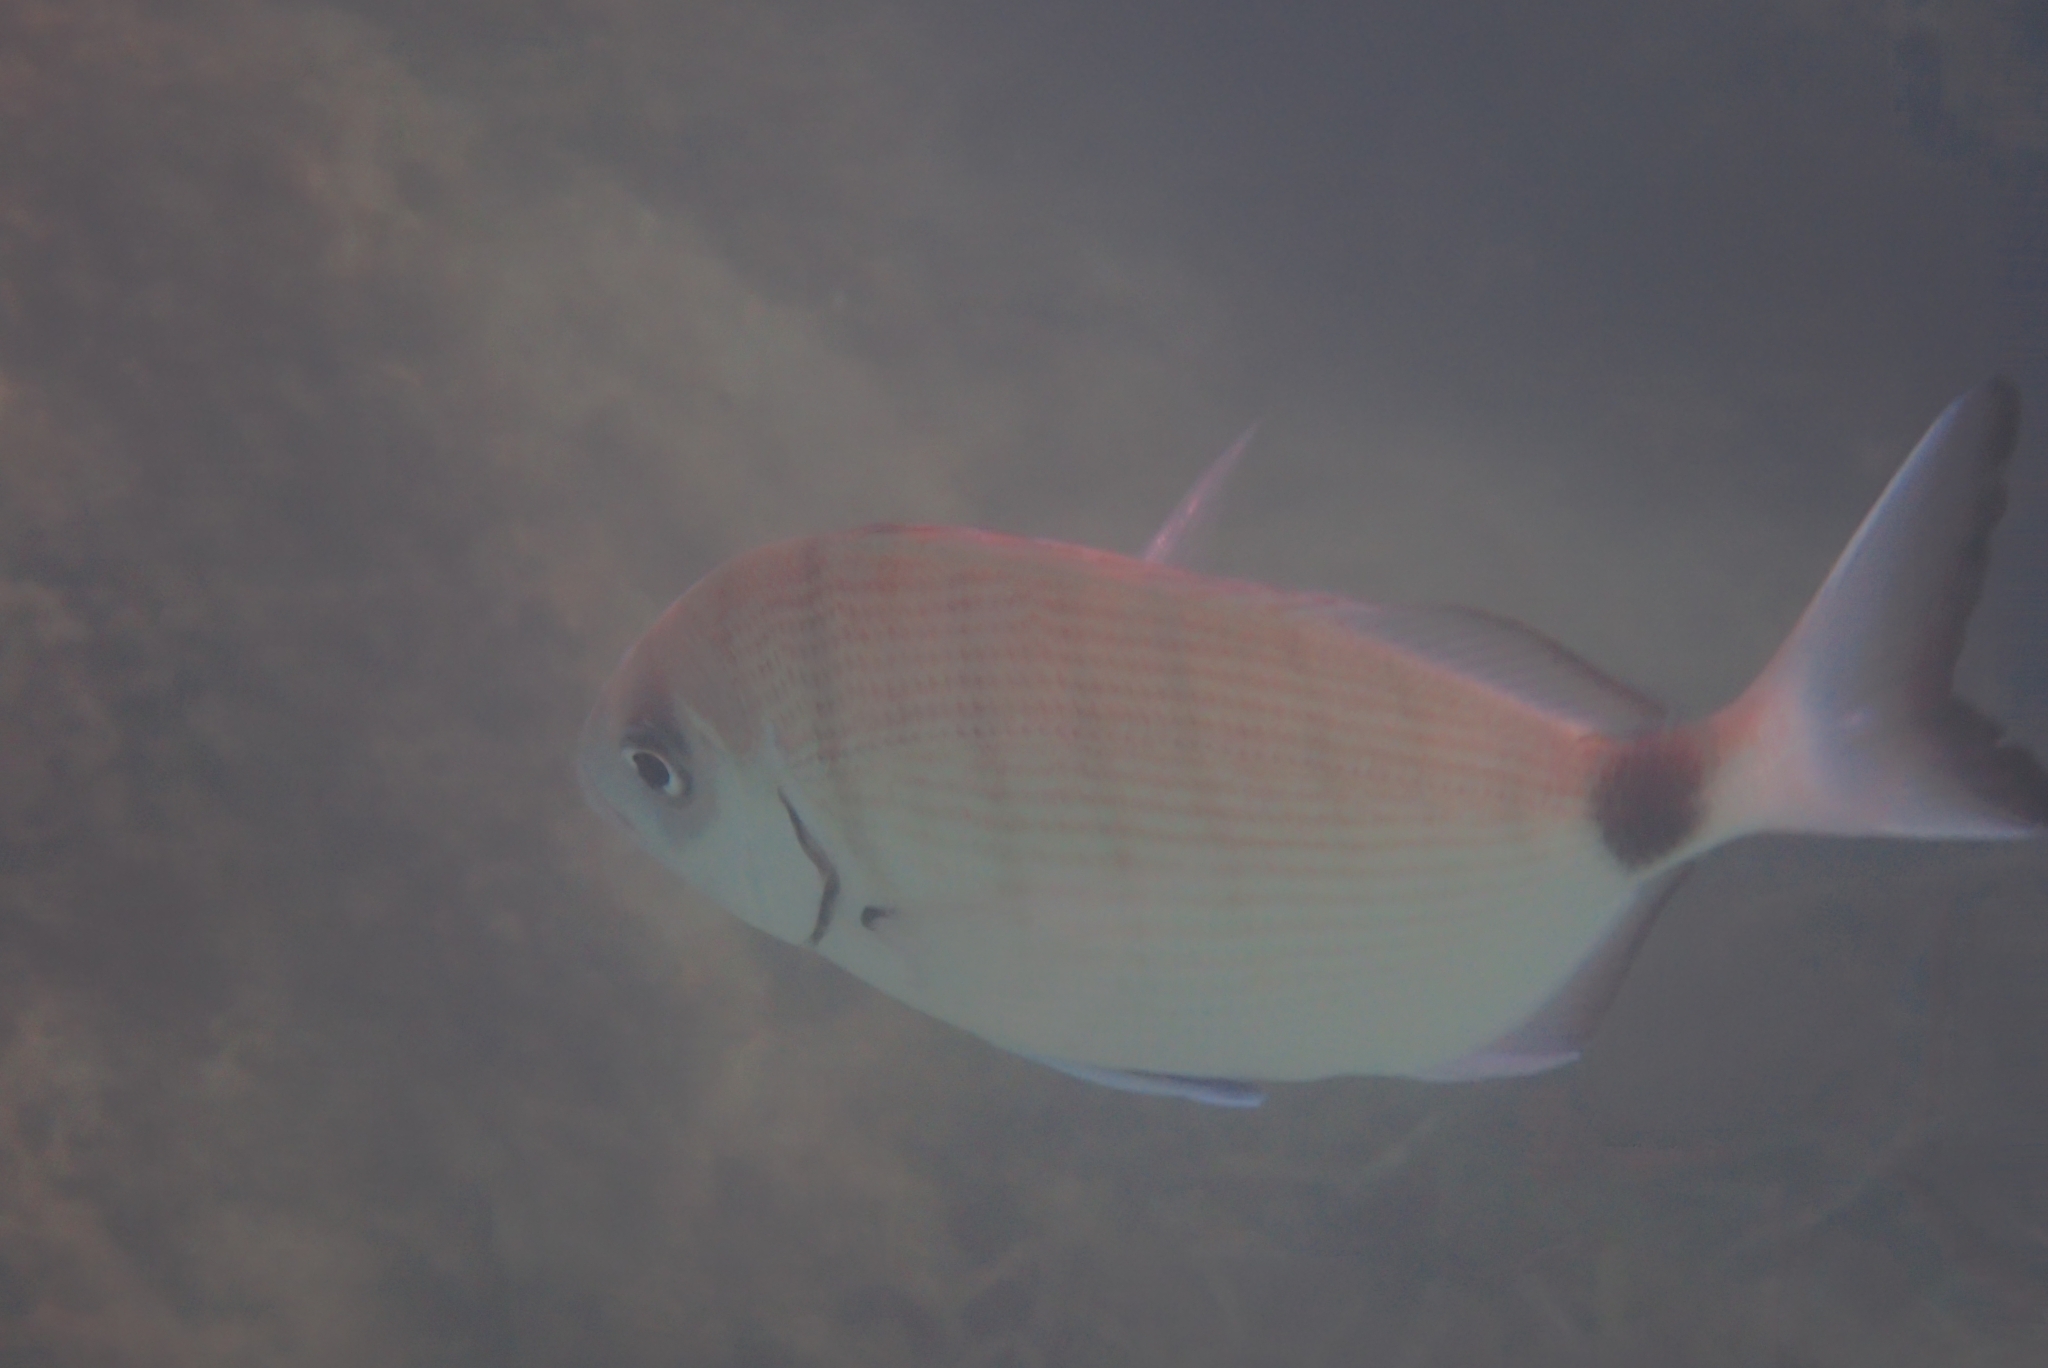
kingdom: Animalia
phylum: Chordata
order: Perciformes
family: Sparidae
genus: Diplodus
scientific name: Diplodus sargus
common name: White seabream
